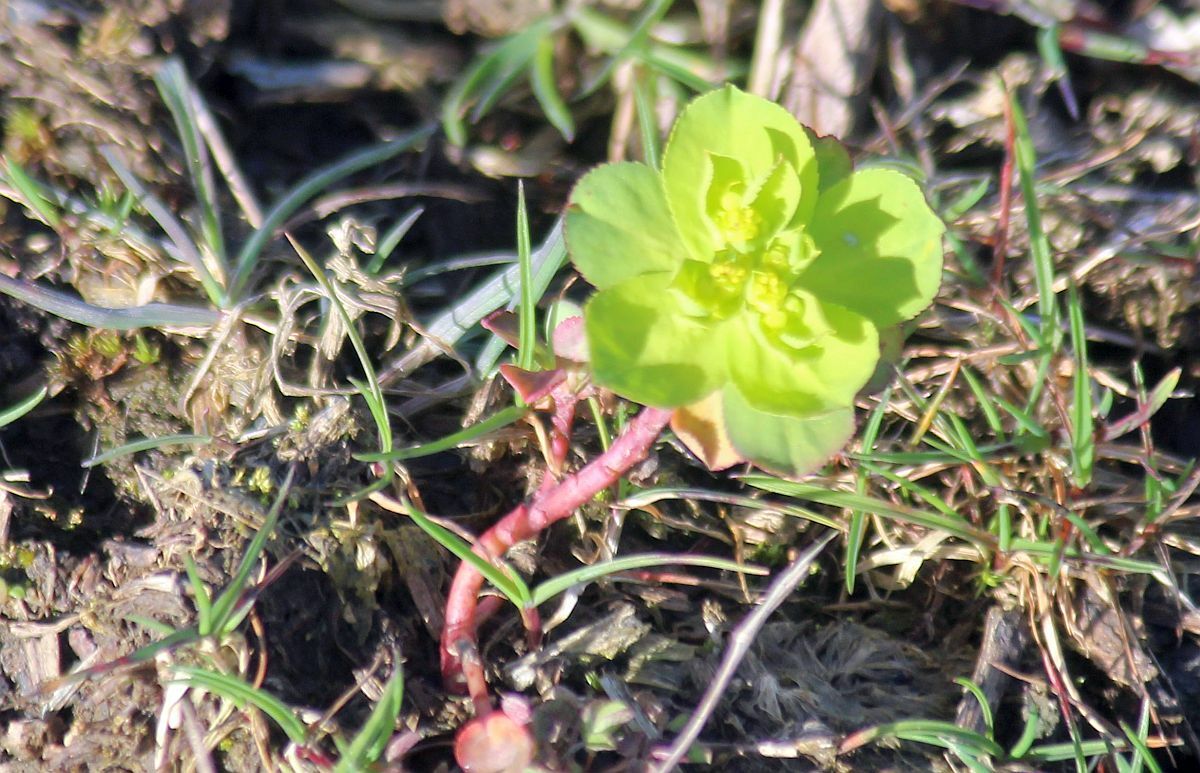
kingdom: Plantae
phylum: Tracheophyta
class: Magnoliopsida
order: Malpighiales
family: Euphorbiaceae
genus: Euphorbia
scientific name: Euphorbia helioscopia
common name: Sun spurge
